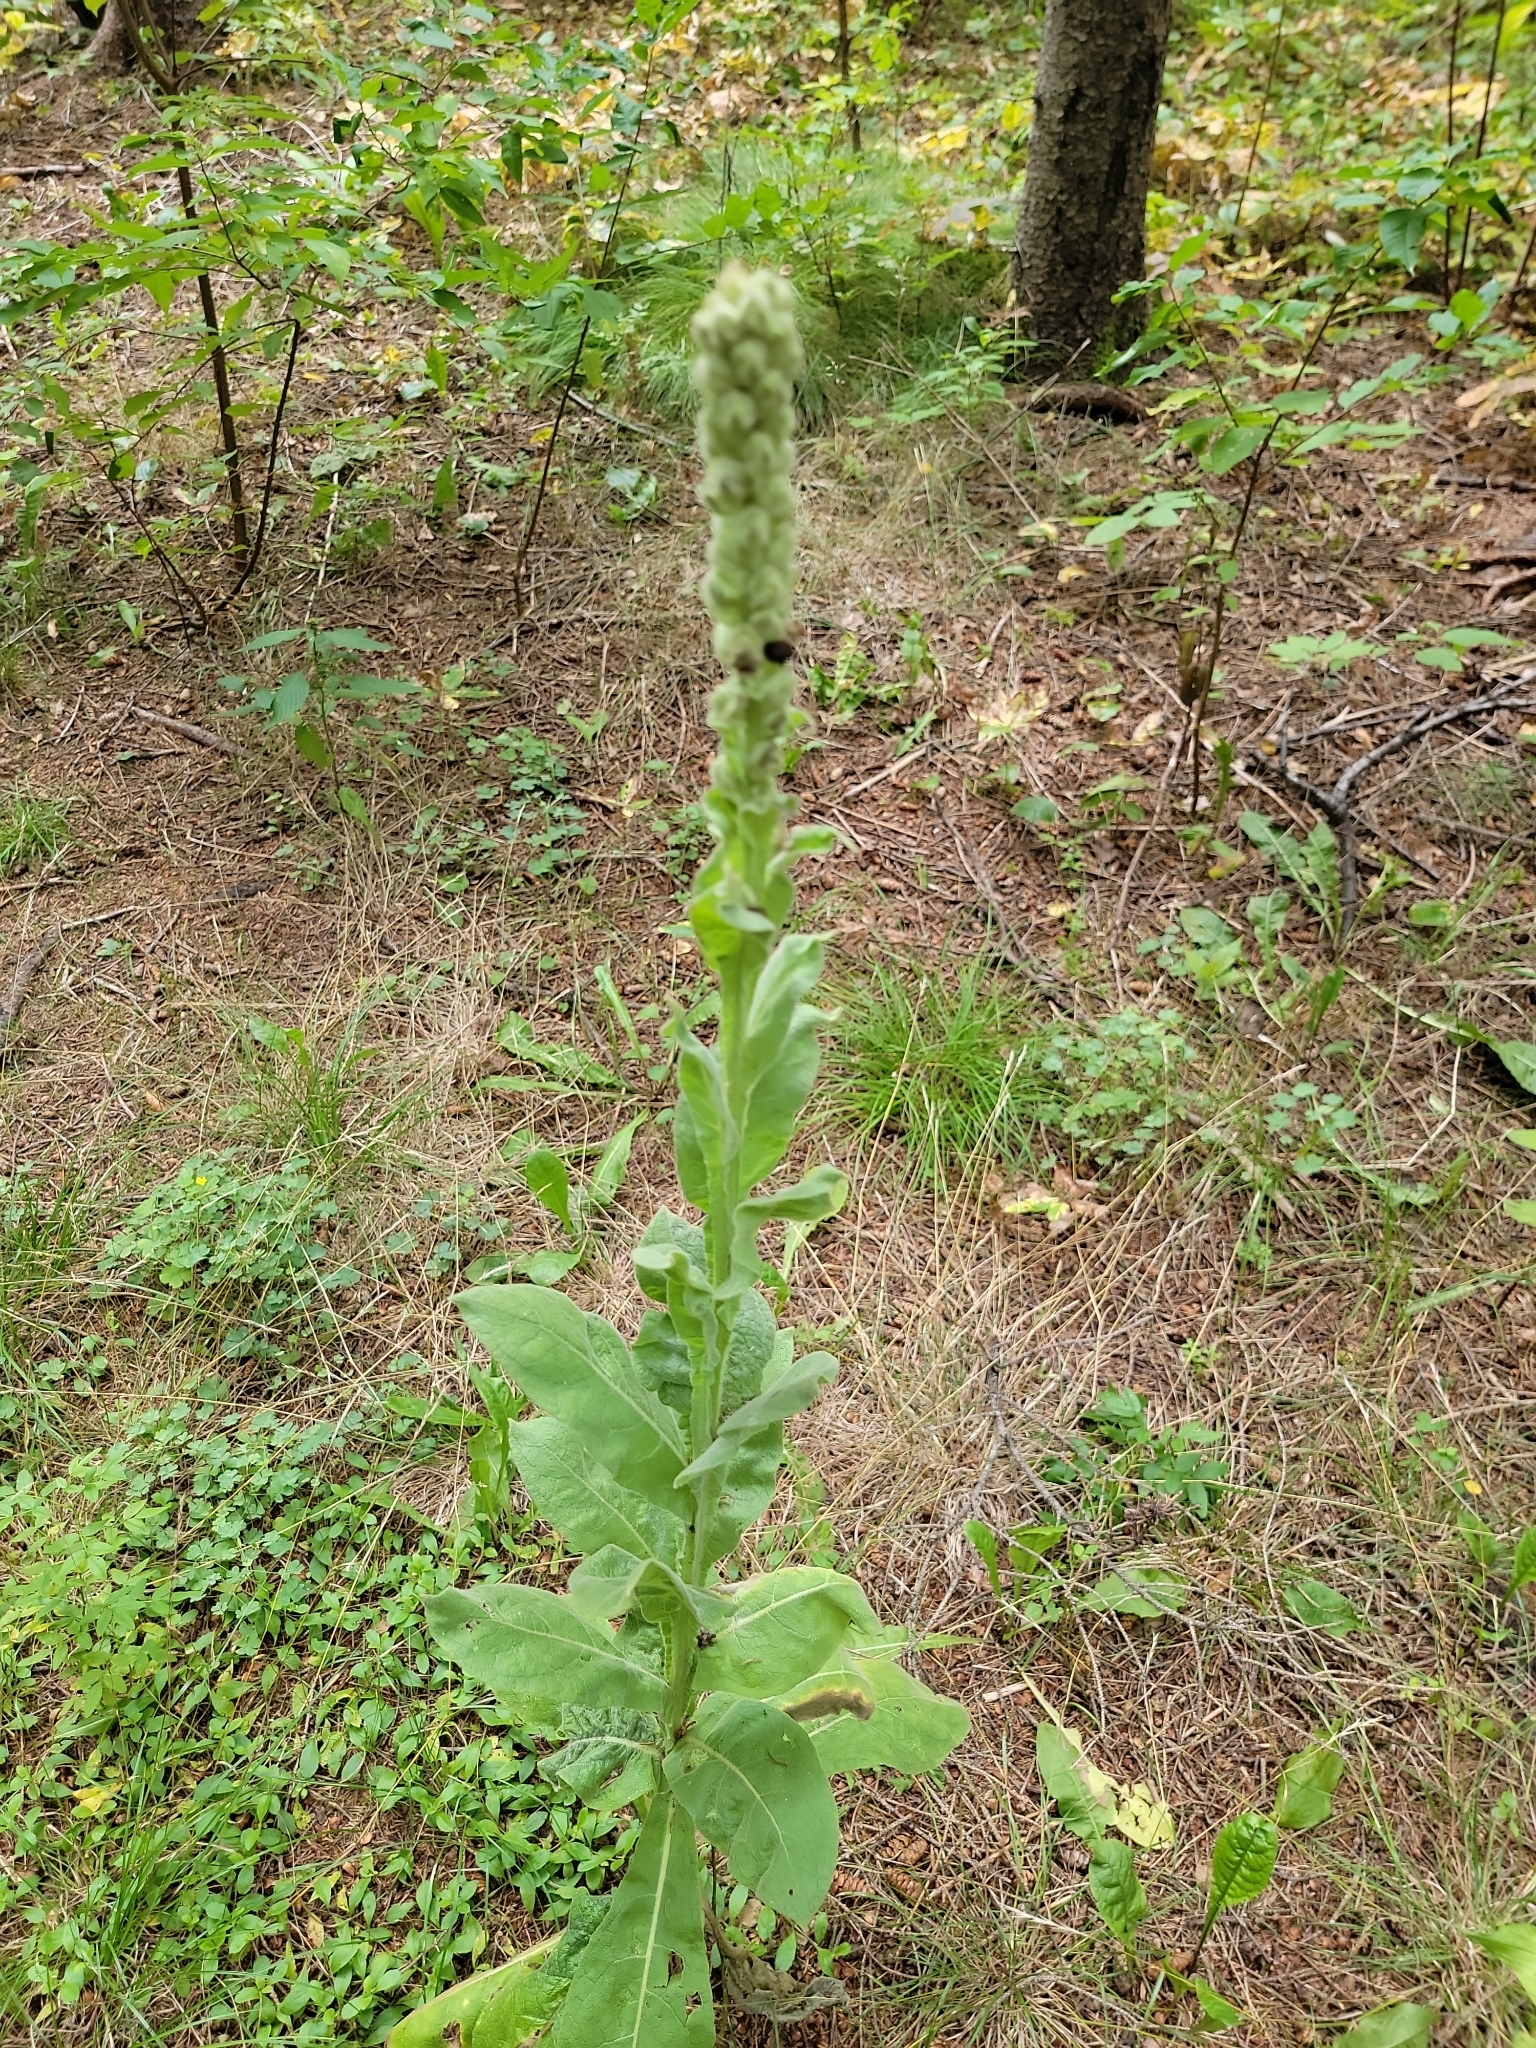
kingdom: Plantae
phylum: Tracheophyta
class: Magnoliopsida
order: Lamiales
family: Scrophulariaceae
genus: Verbascum
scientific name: Verbascum thapsus
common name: Common mullein
